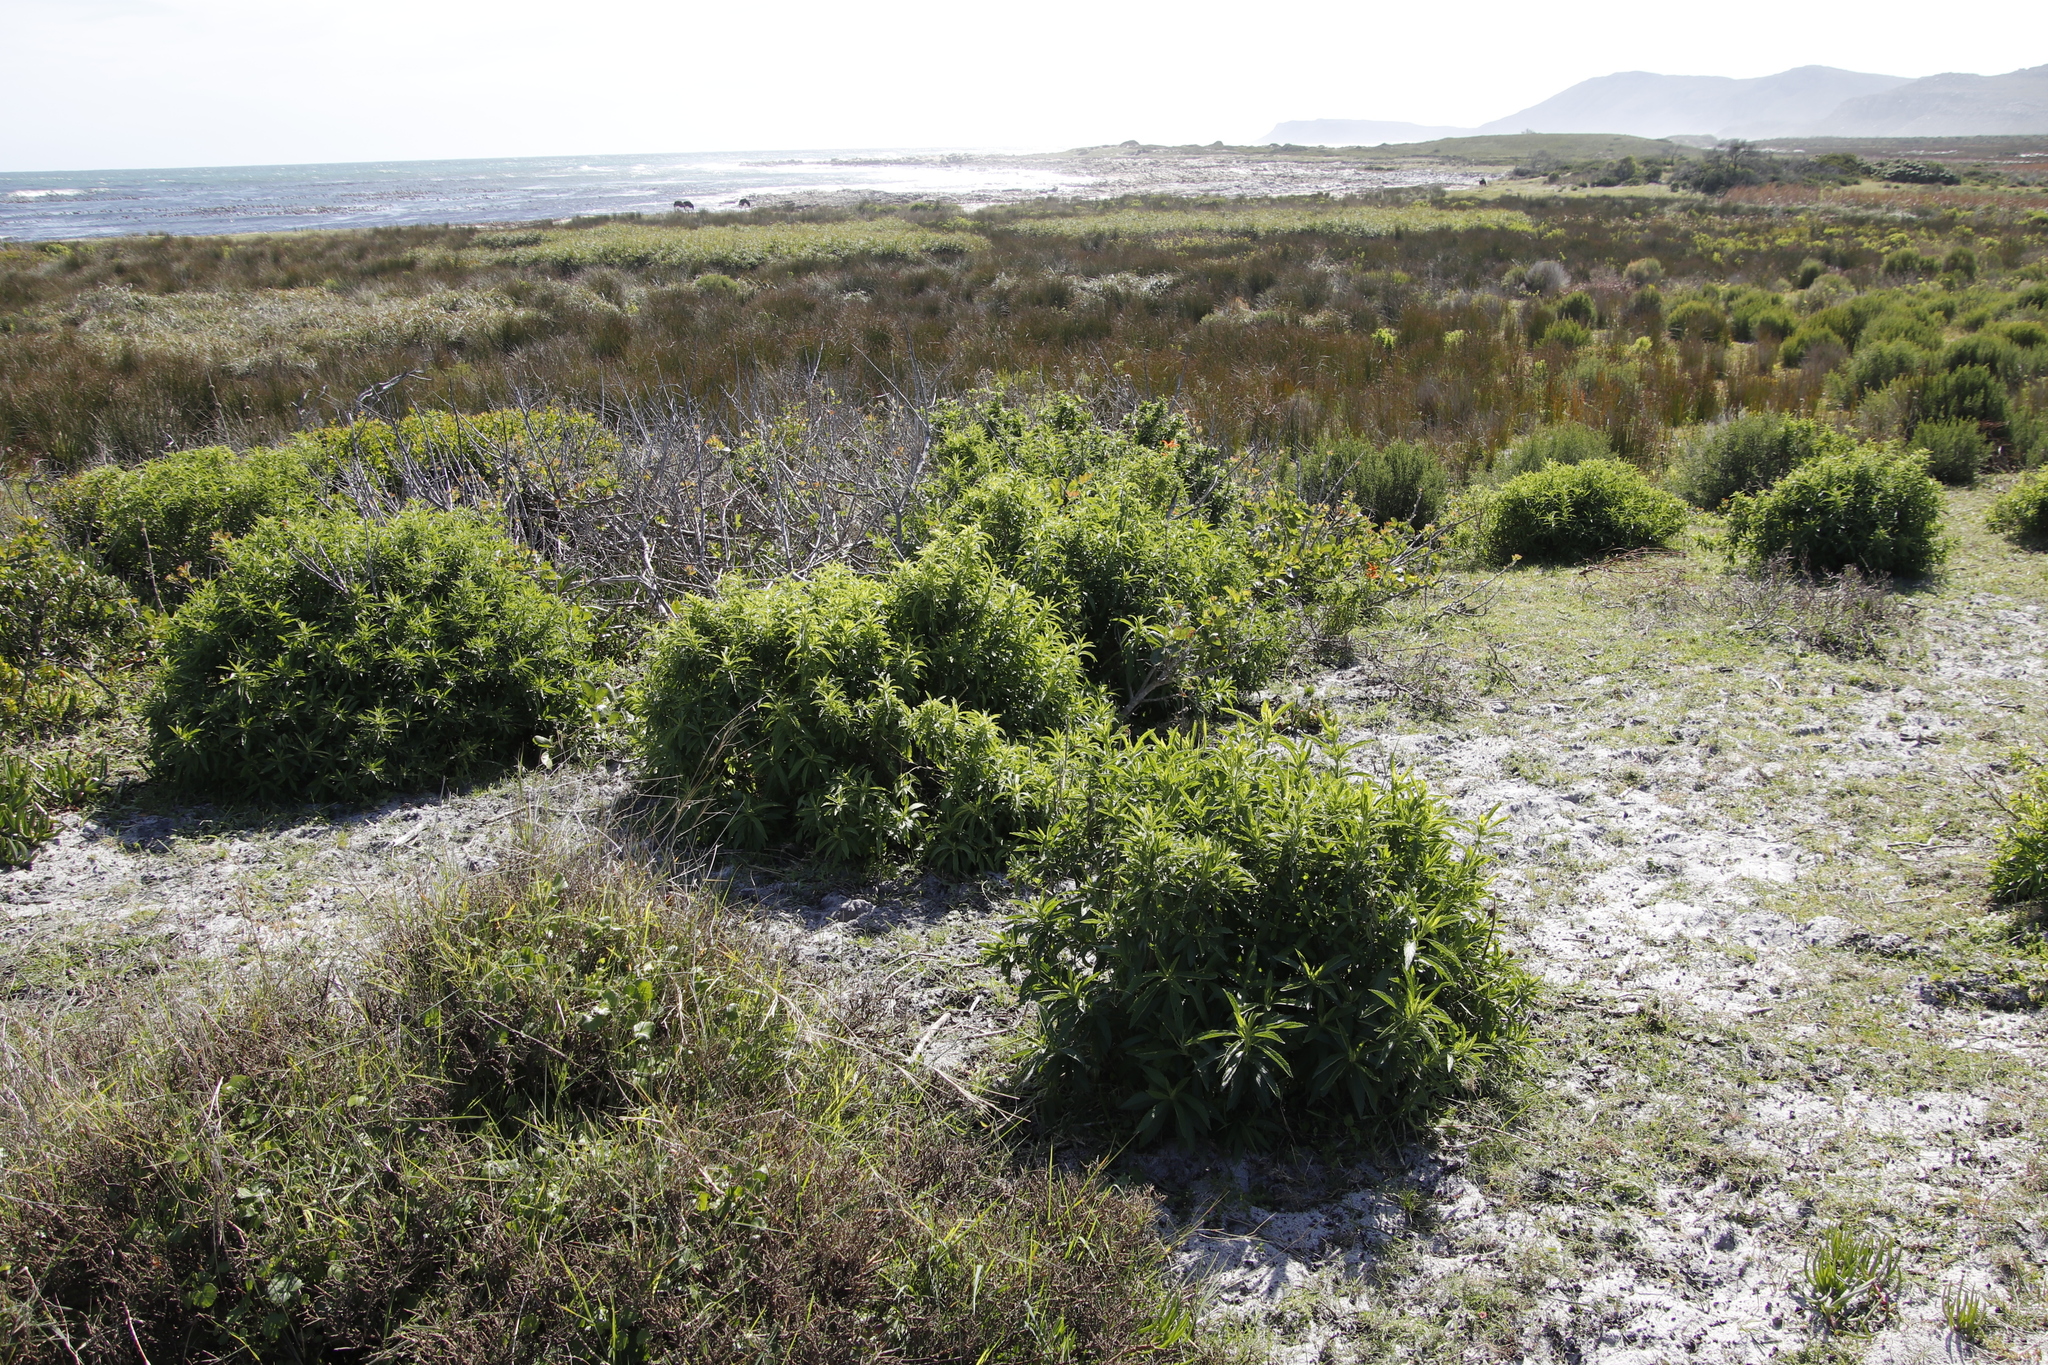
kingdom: Plantae
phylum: Tracheophyta
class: Magnoliopsida
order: Lamiales
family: Lamiaceae
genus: Leonotis
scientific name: Leonotis leonurus
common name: Lion's ear
